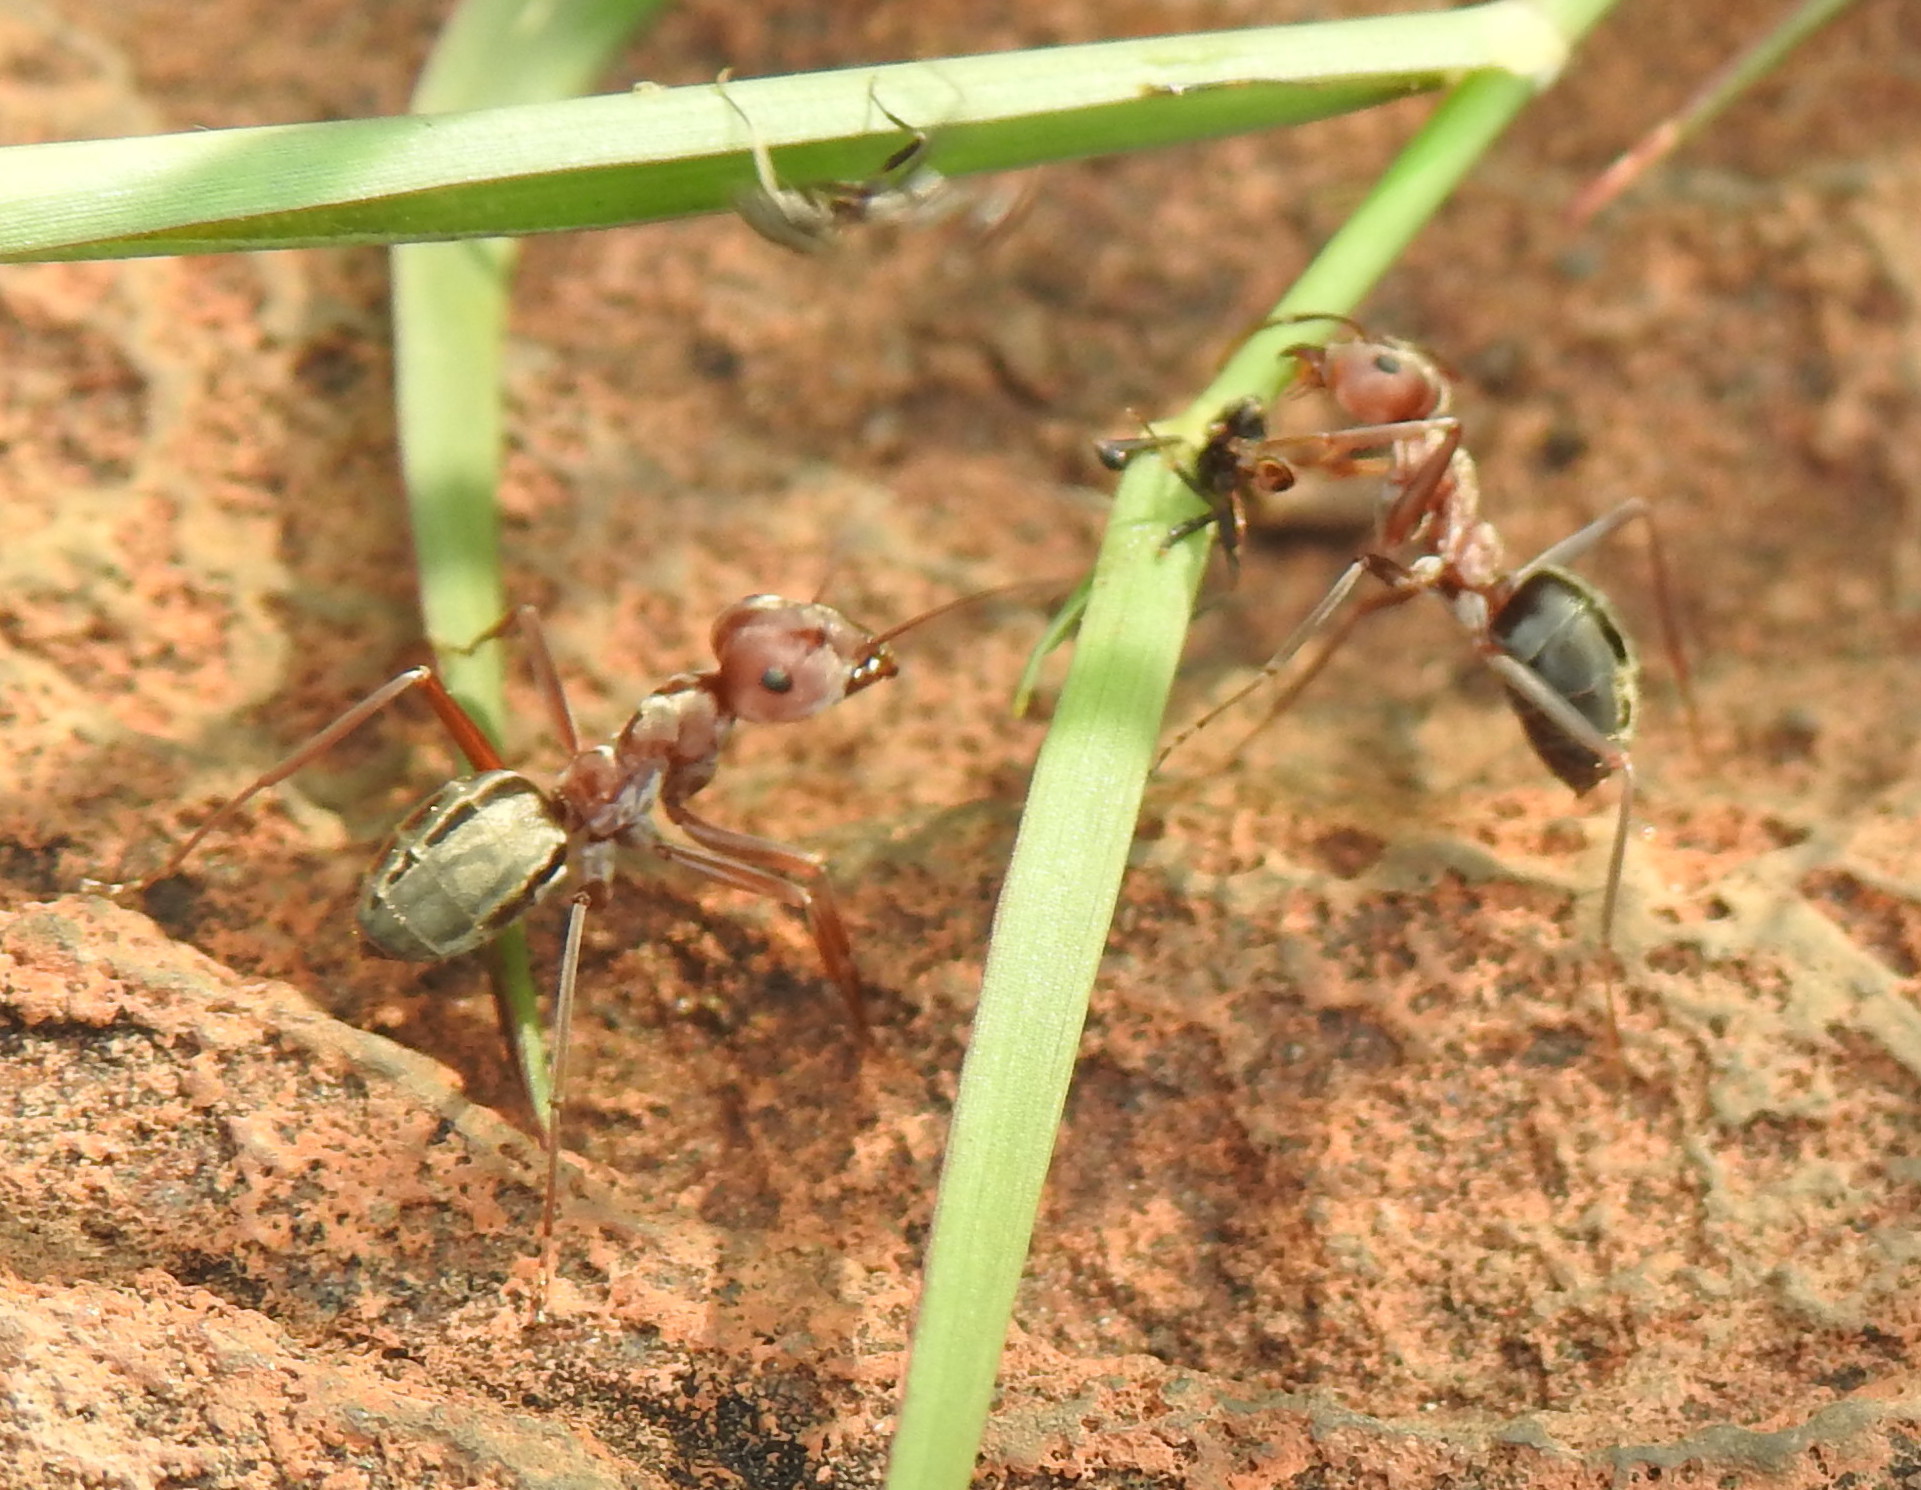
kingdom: Animalia
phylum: Arthropoda
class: Insecta
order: Hymenoptera
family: Formicidae
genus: Anoplolepis
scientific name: Anoplolepis custodiens
